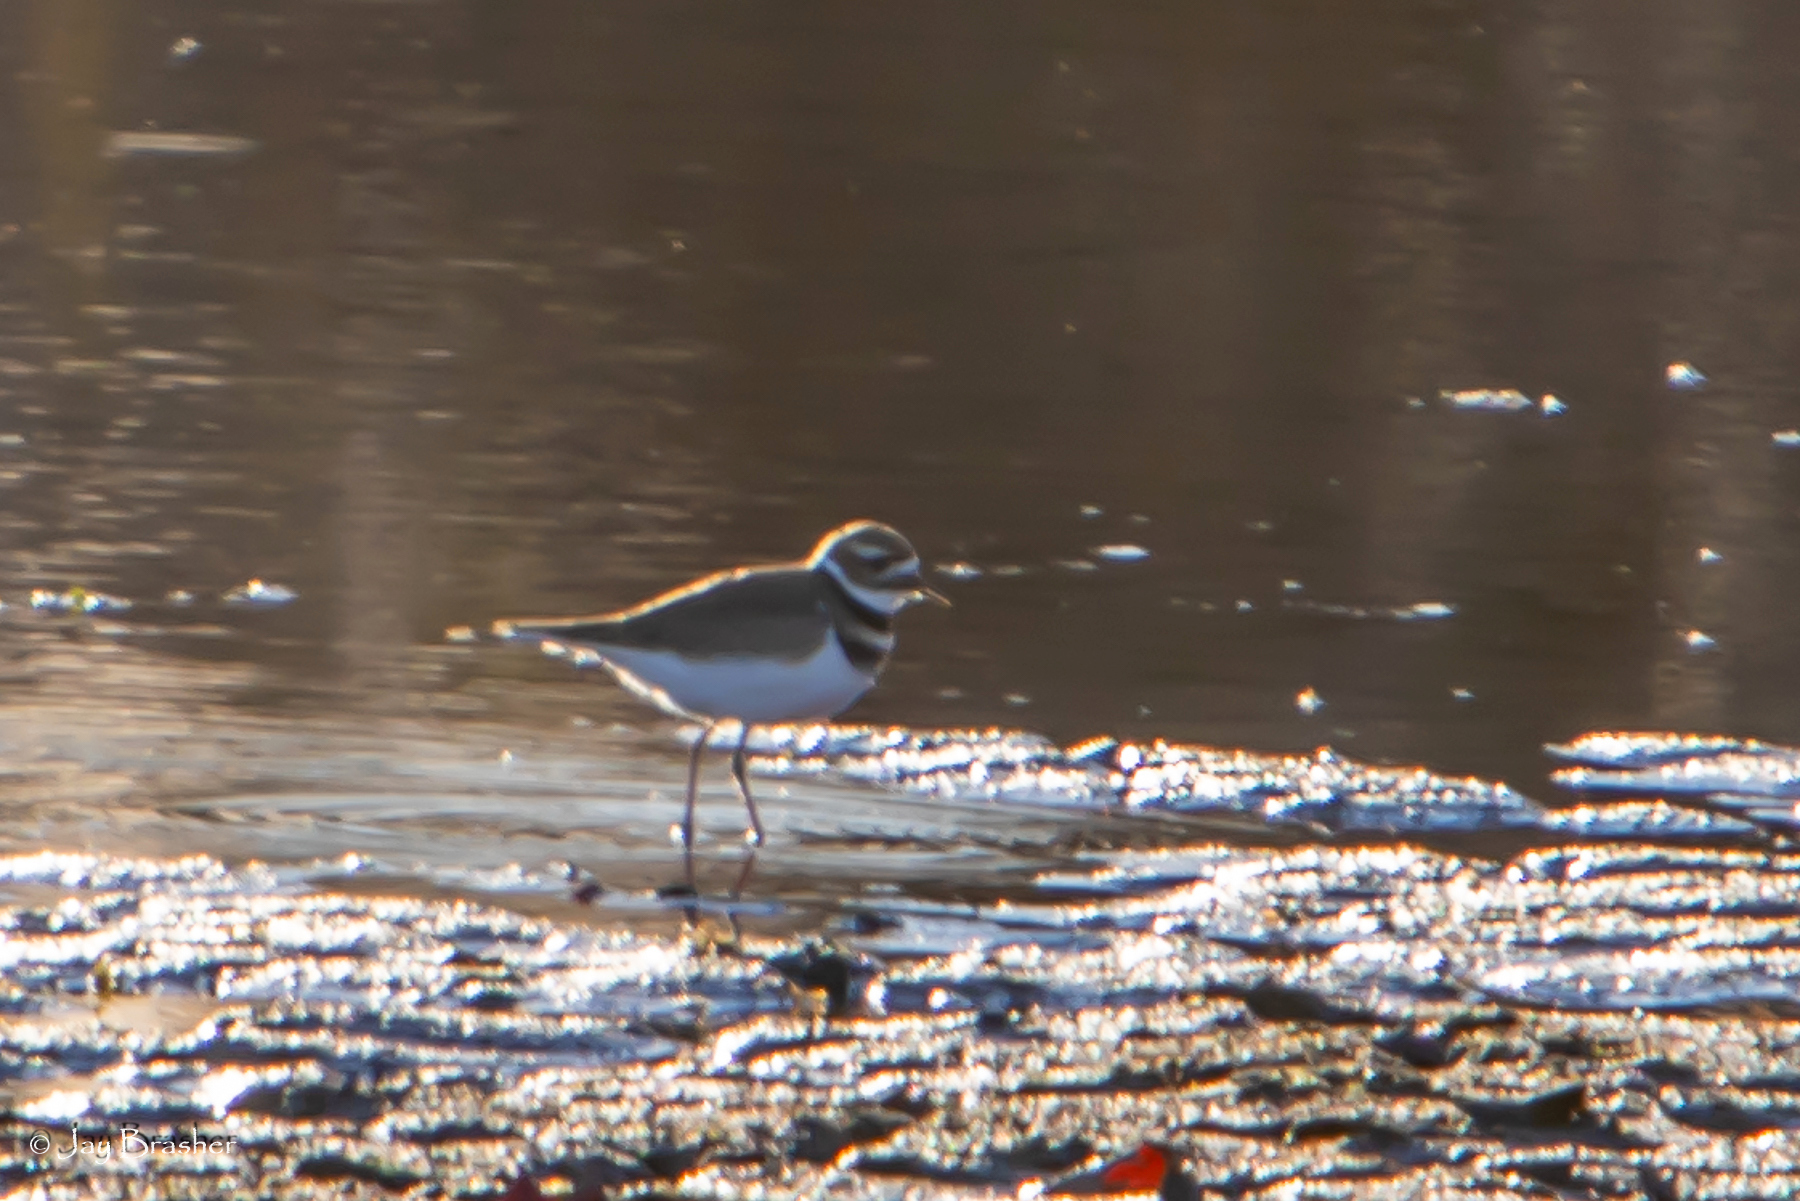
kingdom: Animalia
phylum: Chordata
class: Aves
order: Charadriiformes
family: Charadriidae
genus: Charadrius
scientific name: Charadrius vociferus
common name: Killdeer
